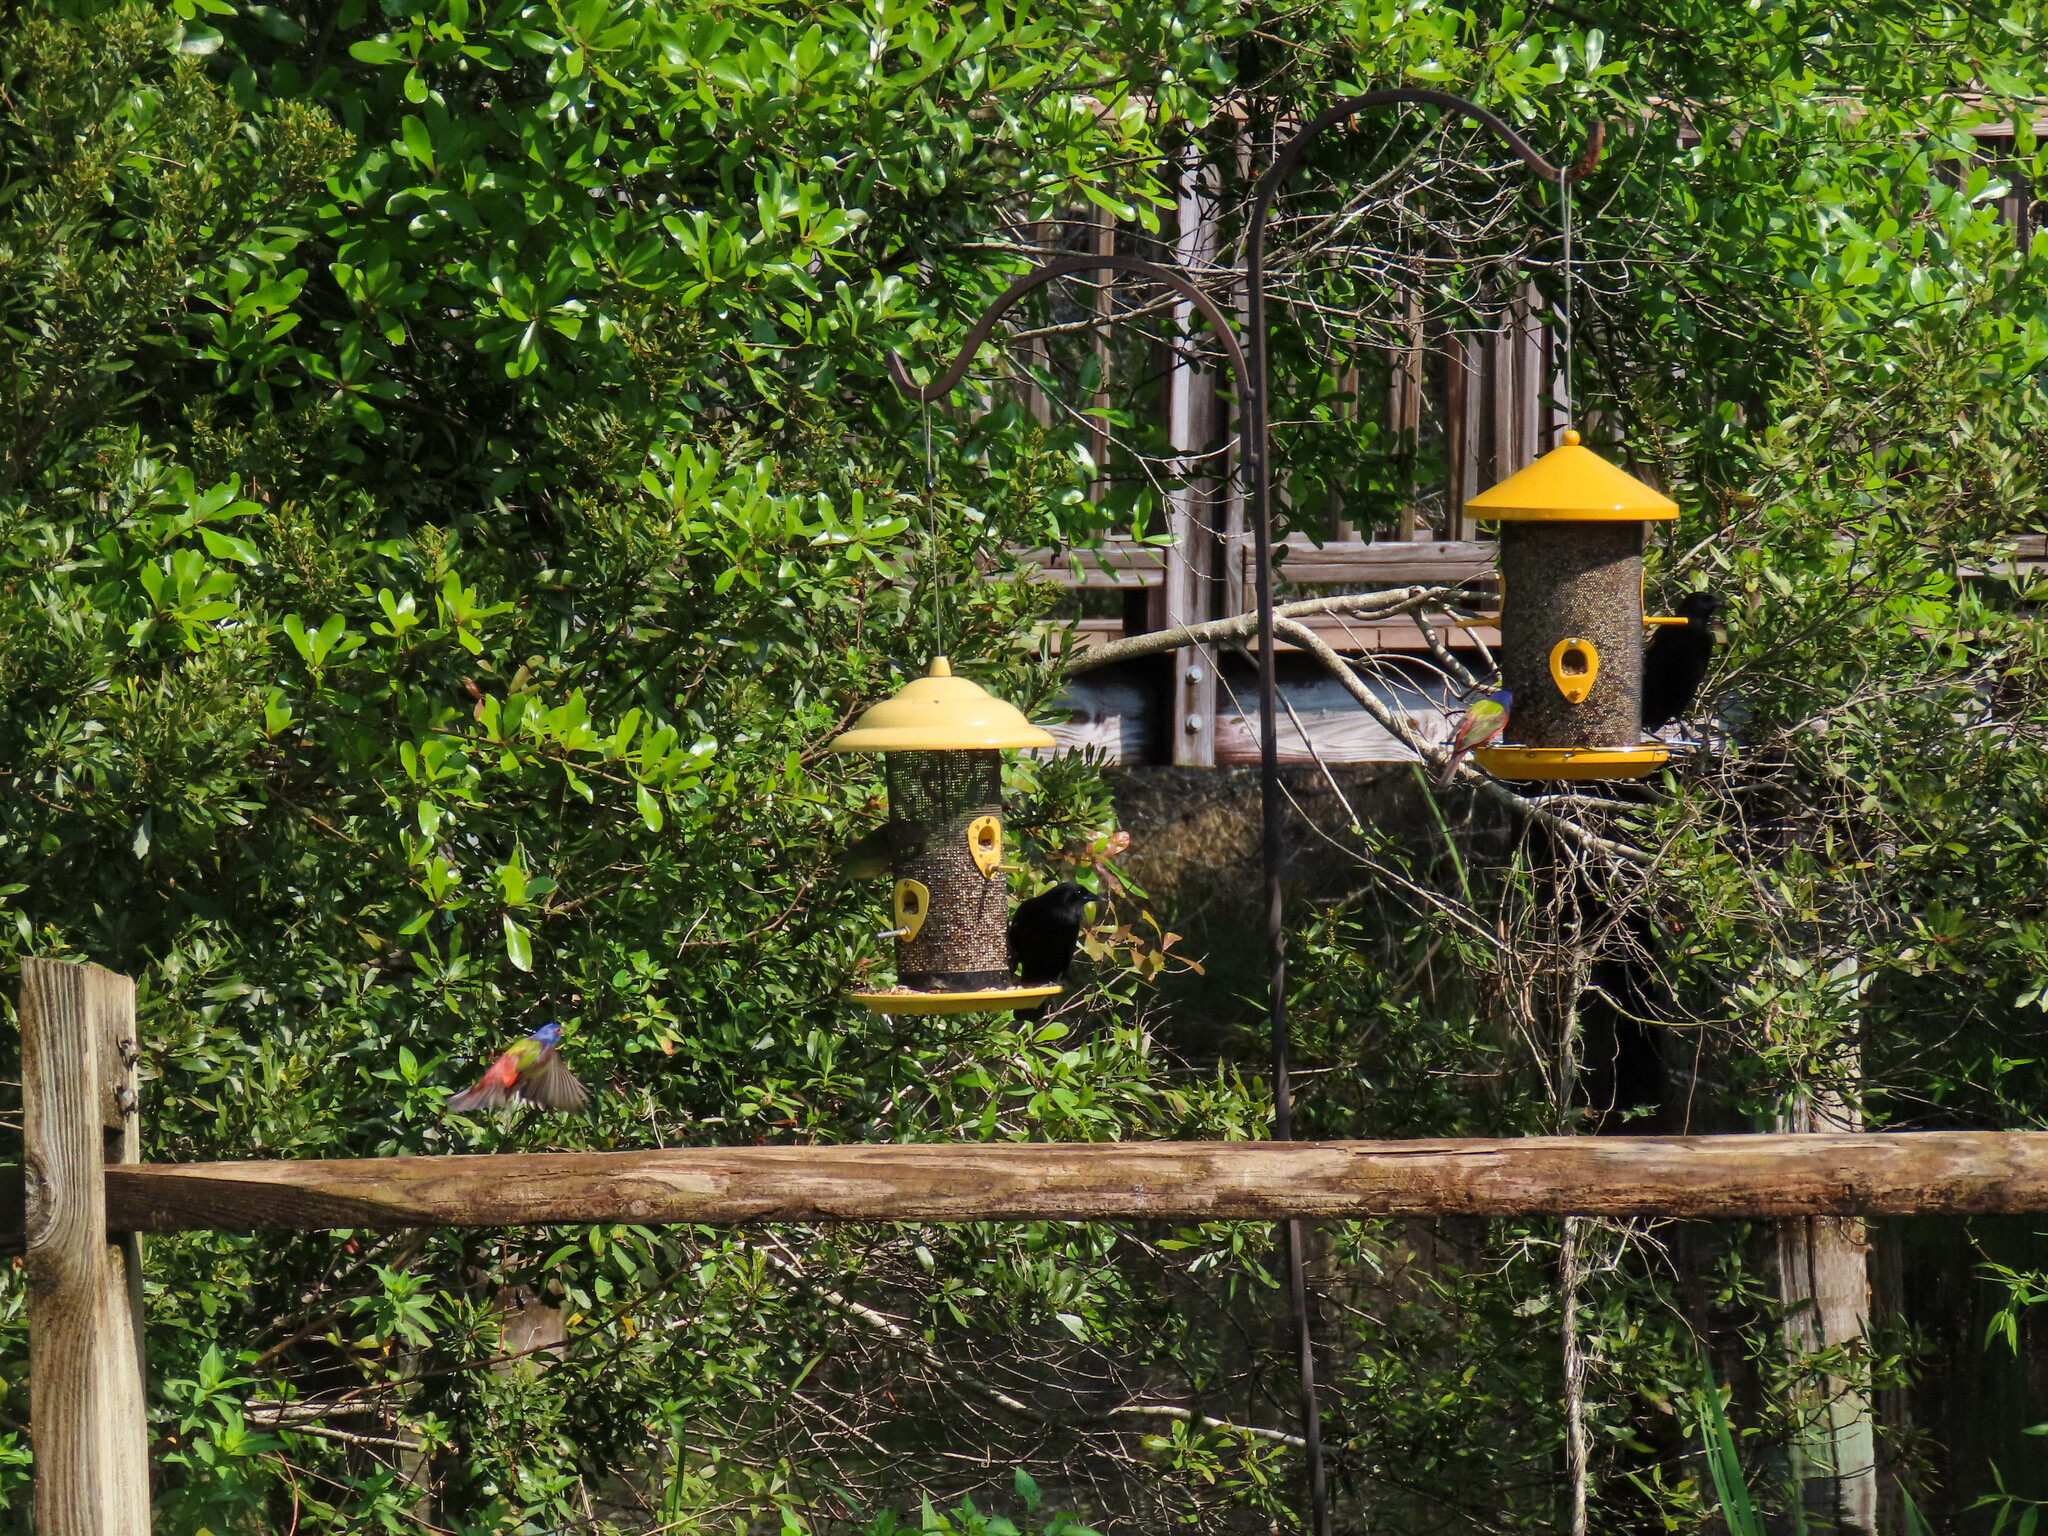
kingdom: Animalia
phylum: Chordata
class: Aves
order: Passeriformes
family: Cardinalidae
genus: Passerina
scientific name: Passerina ciris
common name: Painted bunting
